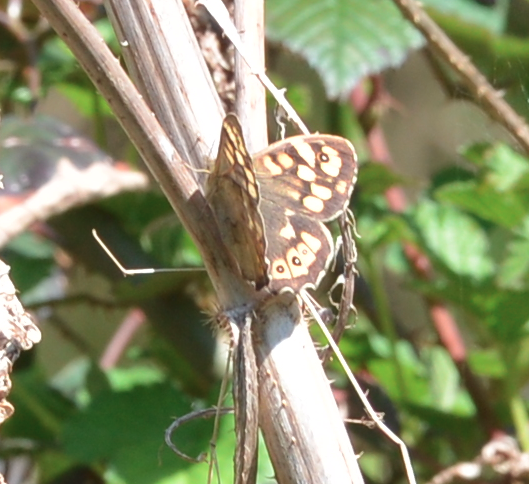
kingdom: Animalia
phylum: Arthropoda
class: Insecta
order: Lepidoptera
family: Nymphalidae
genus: Pararge
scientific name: Pararge aegeria
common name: Speckled wood
